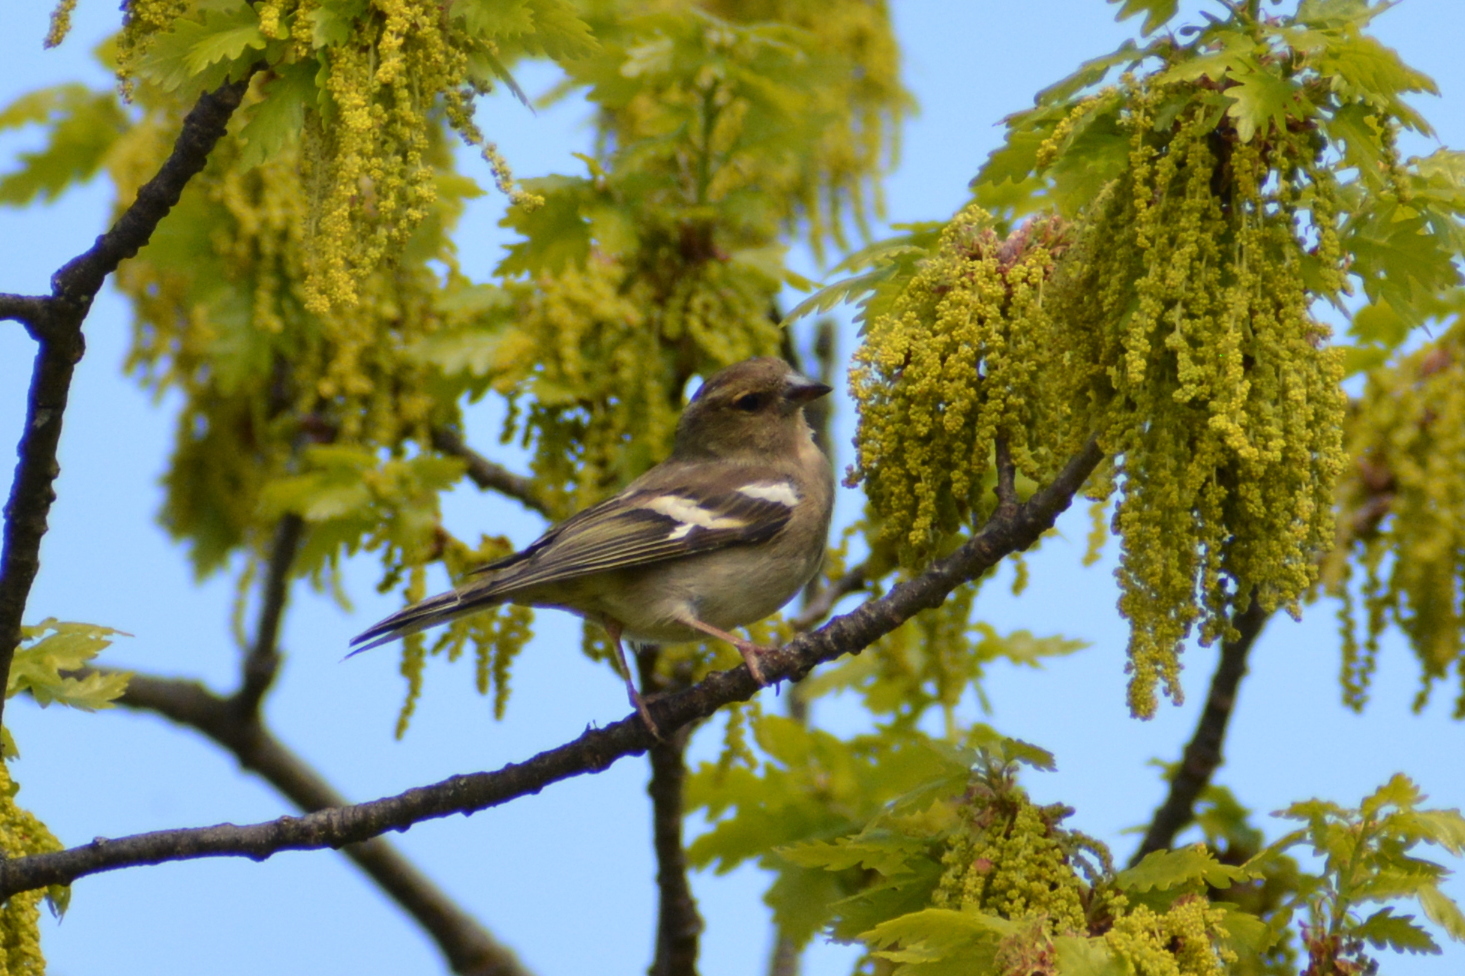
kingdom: Animalia
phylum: Chordata
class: Aves
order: Passeriformes
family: Fringillidae
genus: Fringilla
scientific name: Fringilla coelebs
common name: Common chaffinch
